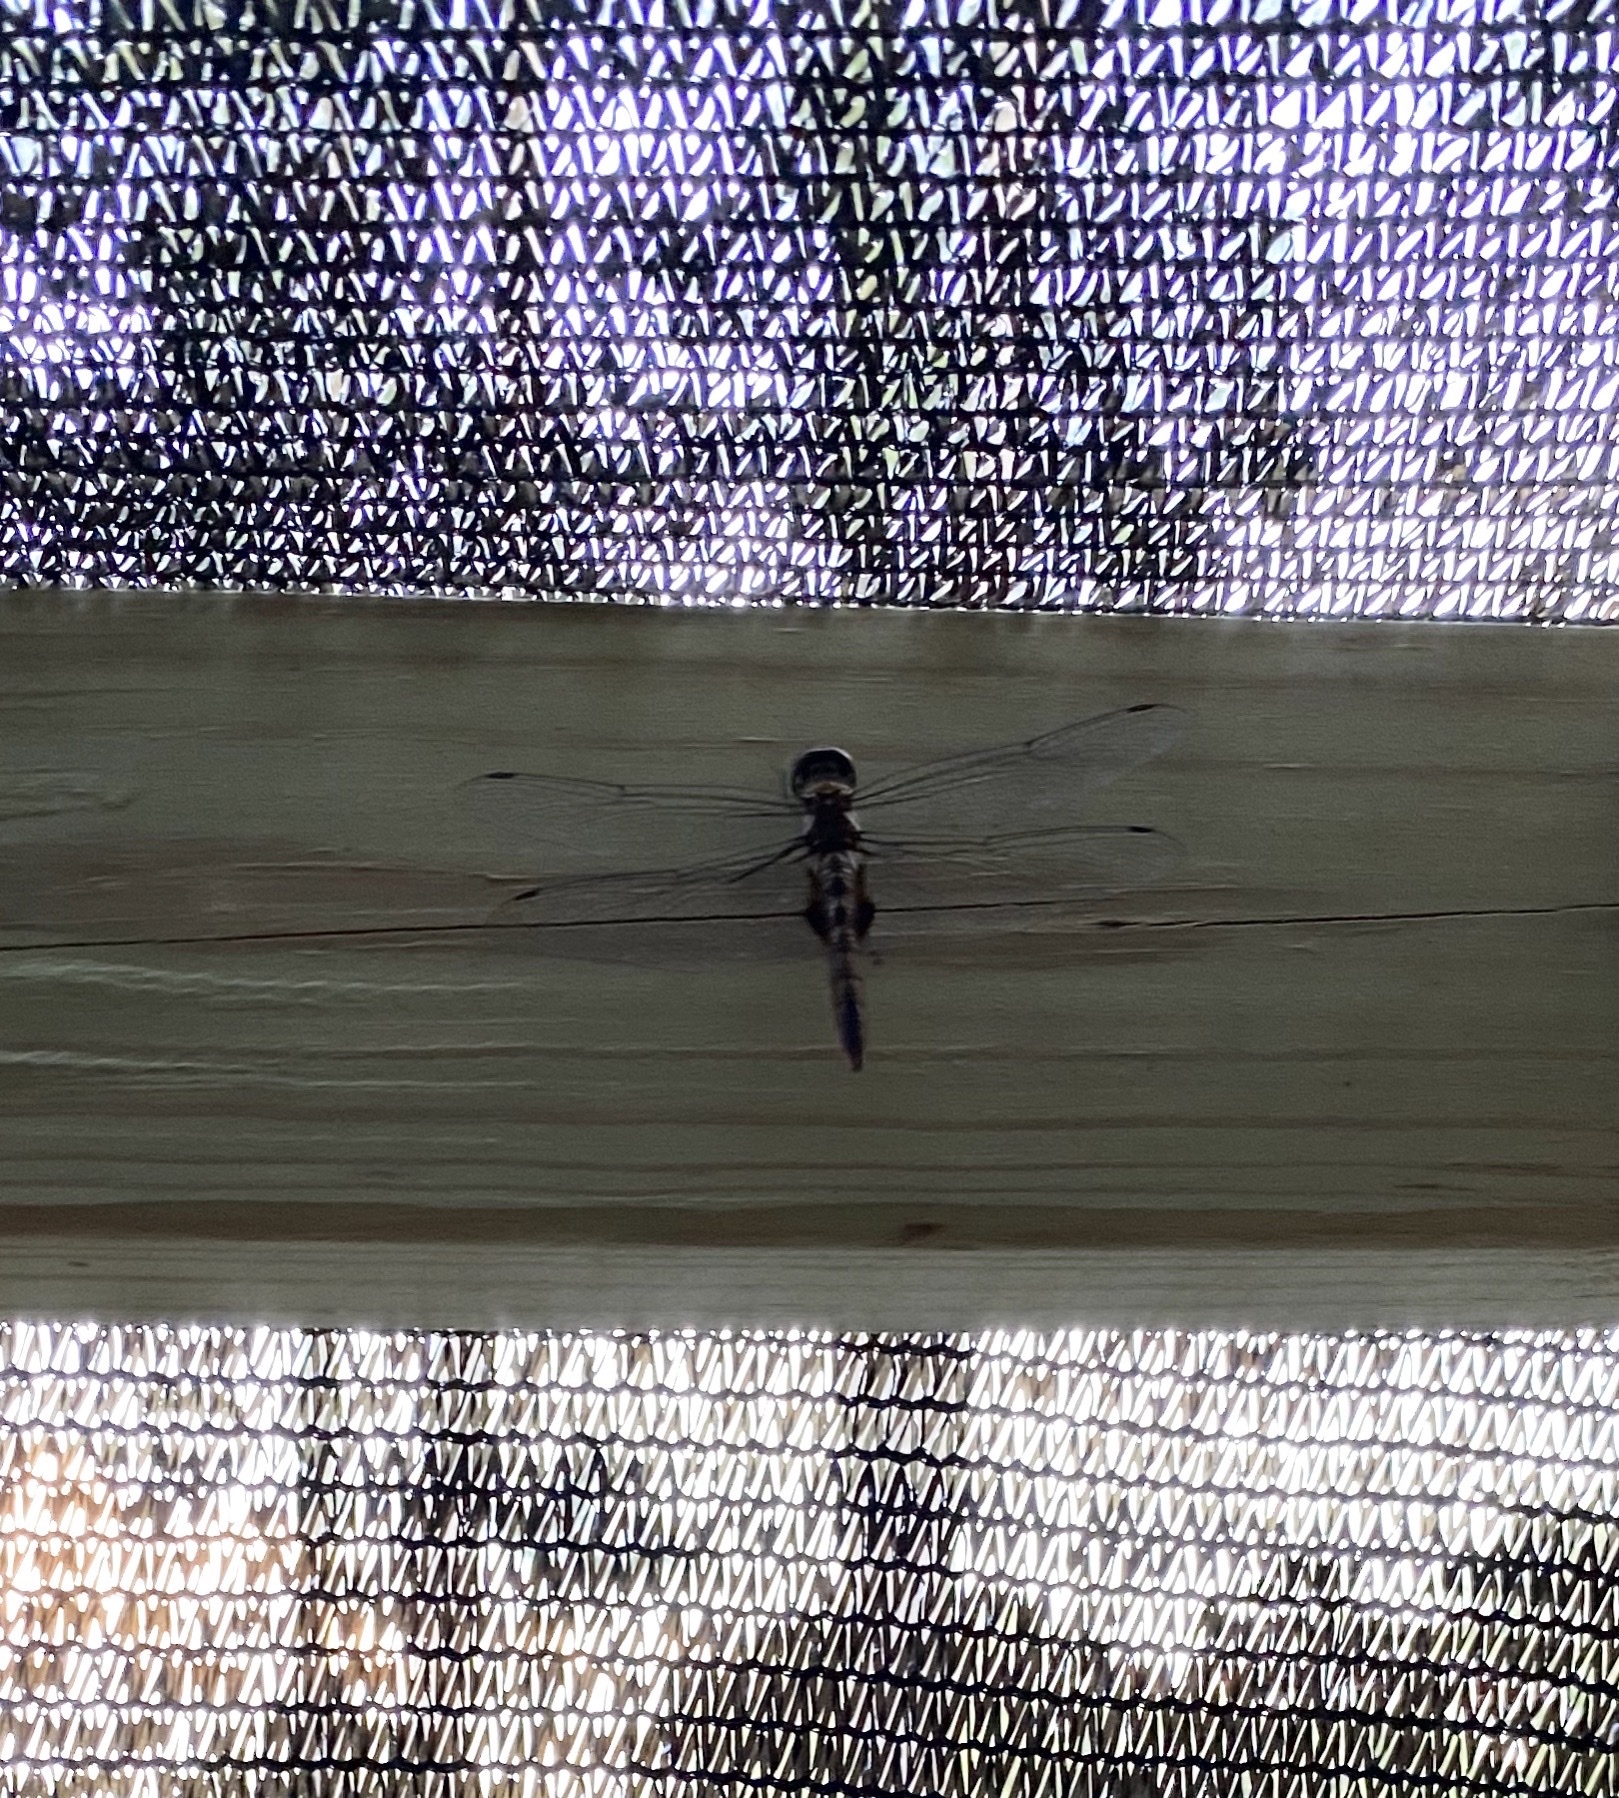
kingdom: Animalia
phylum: Arthropoda
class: Insecta
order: Odonata
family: Libellulidae
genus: Pantala
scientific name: Pantala hymenaea
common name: Spot-winged glider
